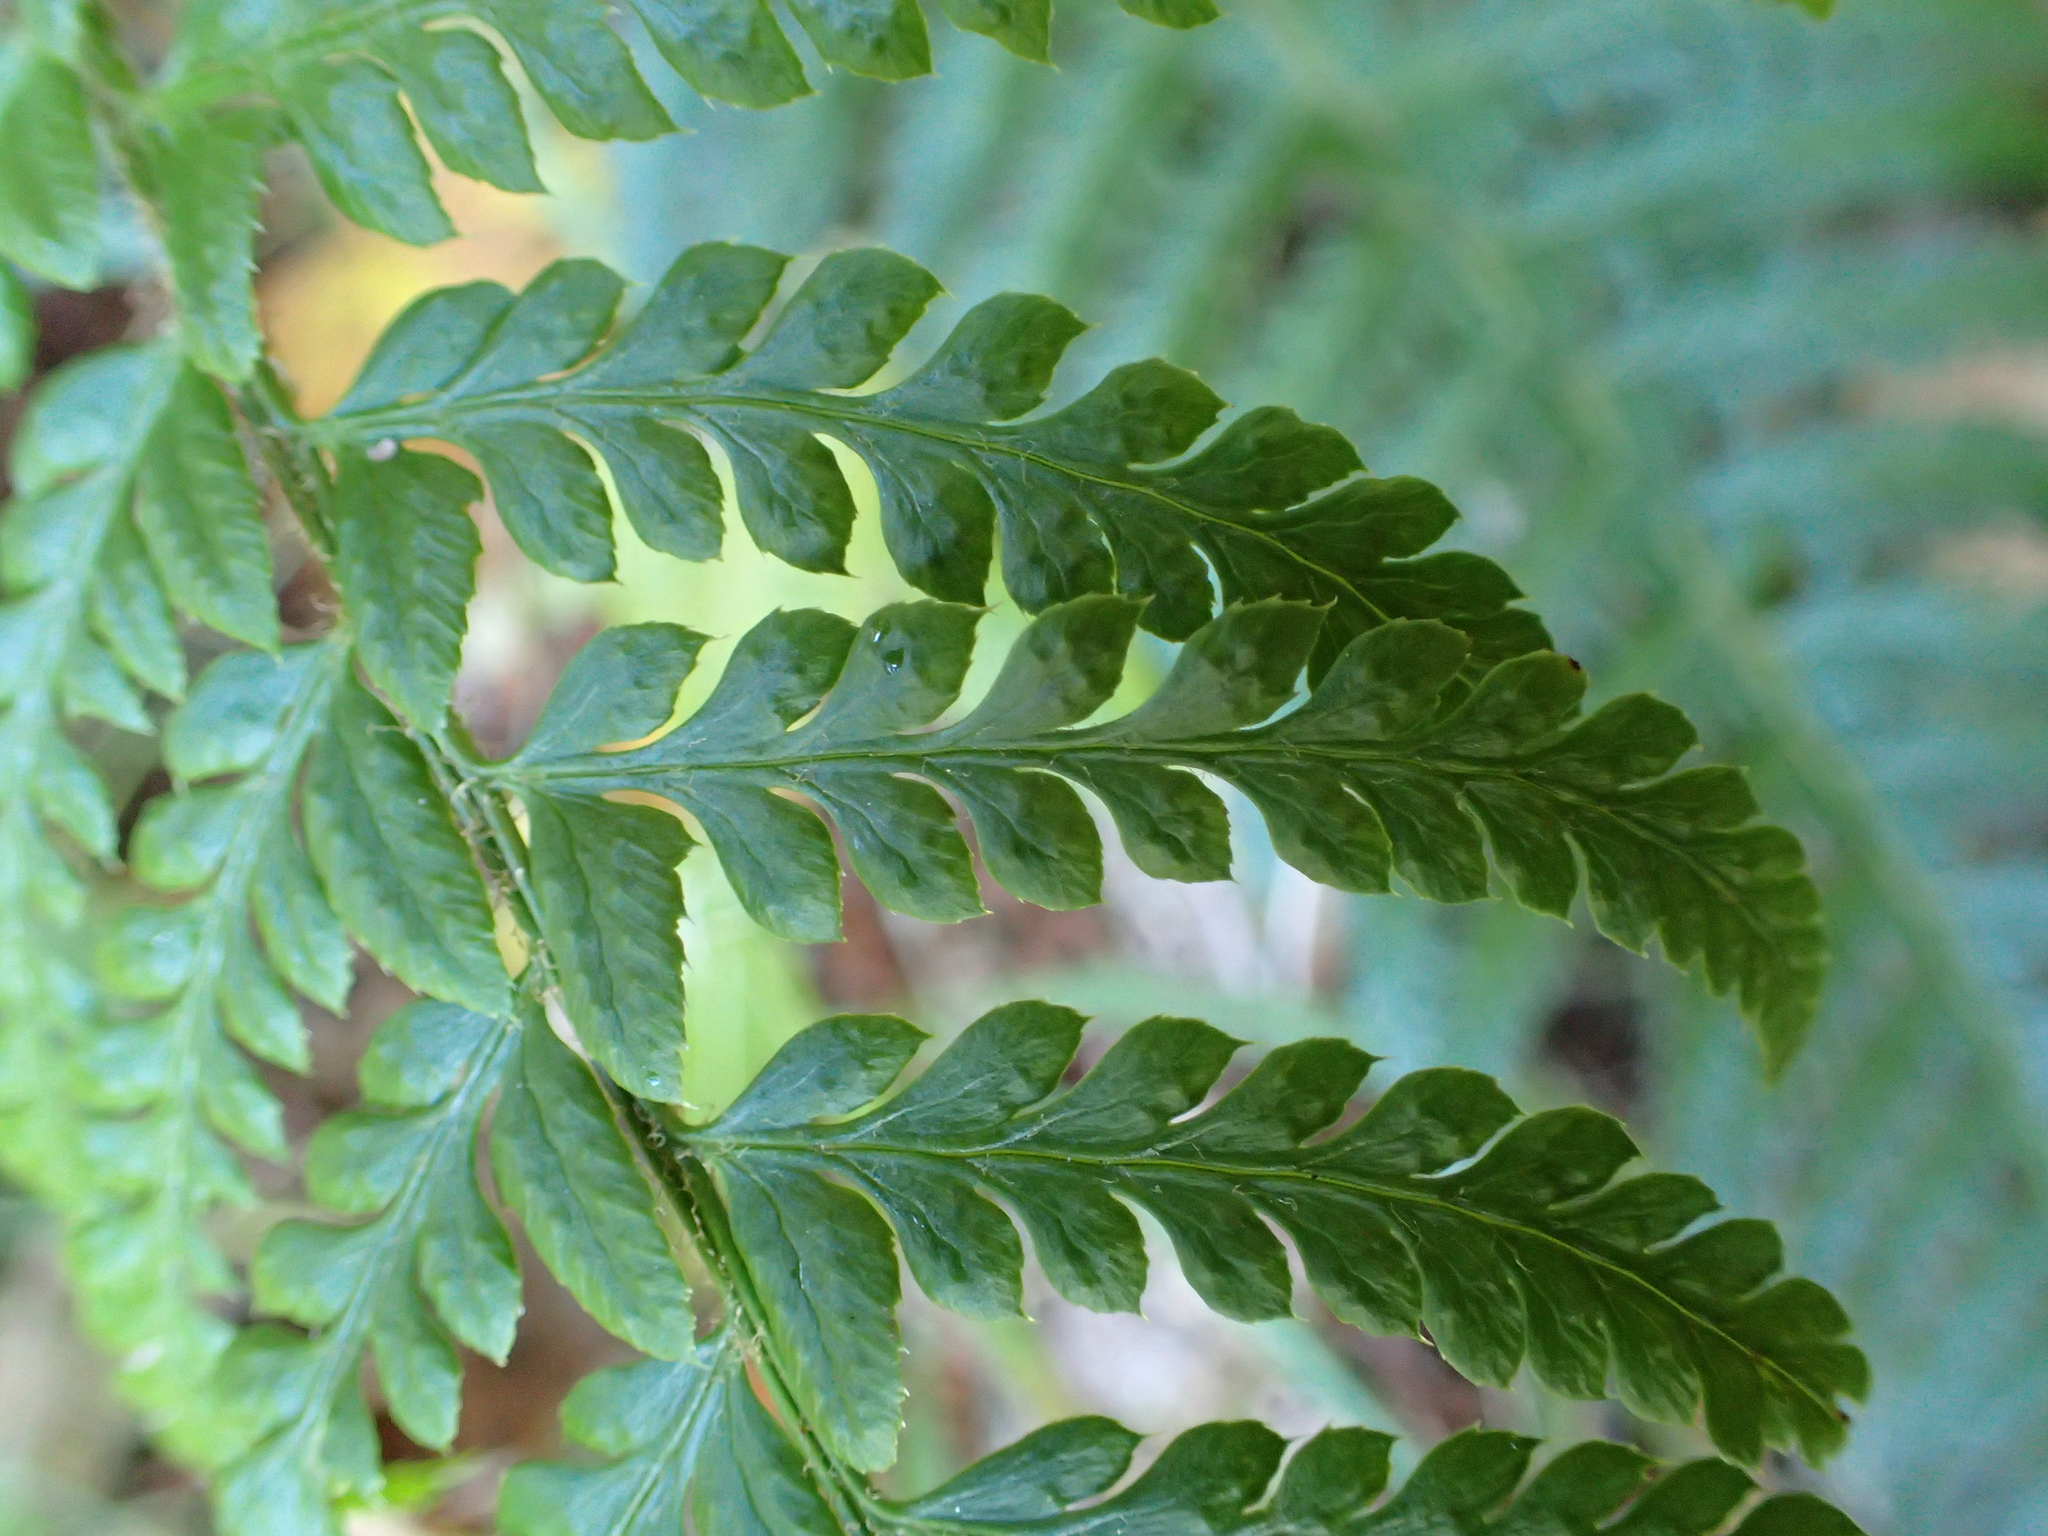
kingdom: Plantae
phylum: Tracheophyta
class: Polypodiopsida
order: Polypodiales
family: Dryopteridaceae
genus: Polystichum
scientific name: Polystichum aculeatum
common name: Hard shield-fern
